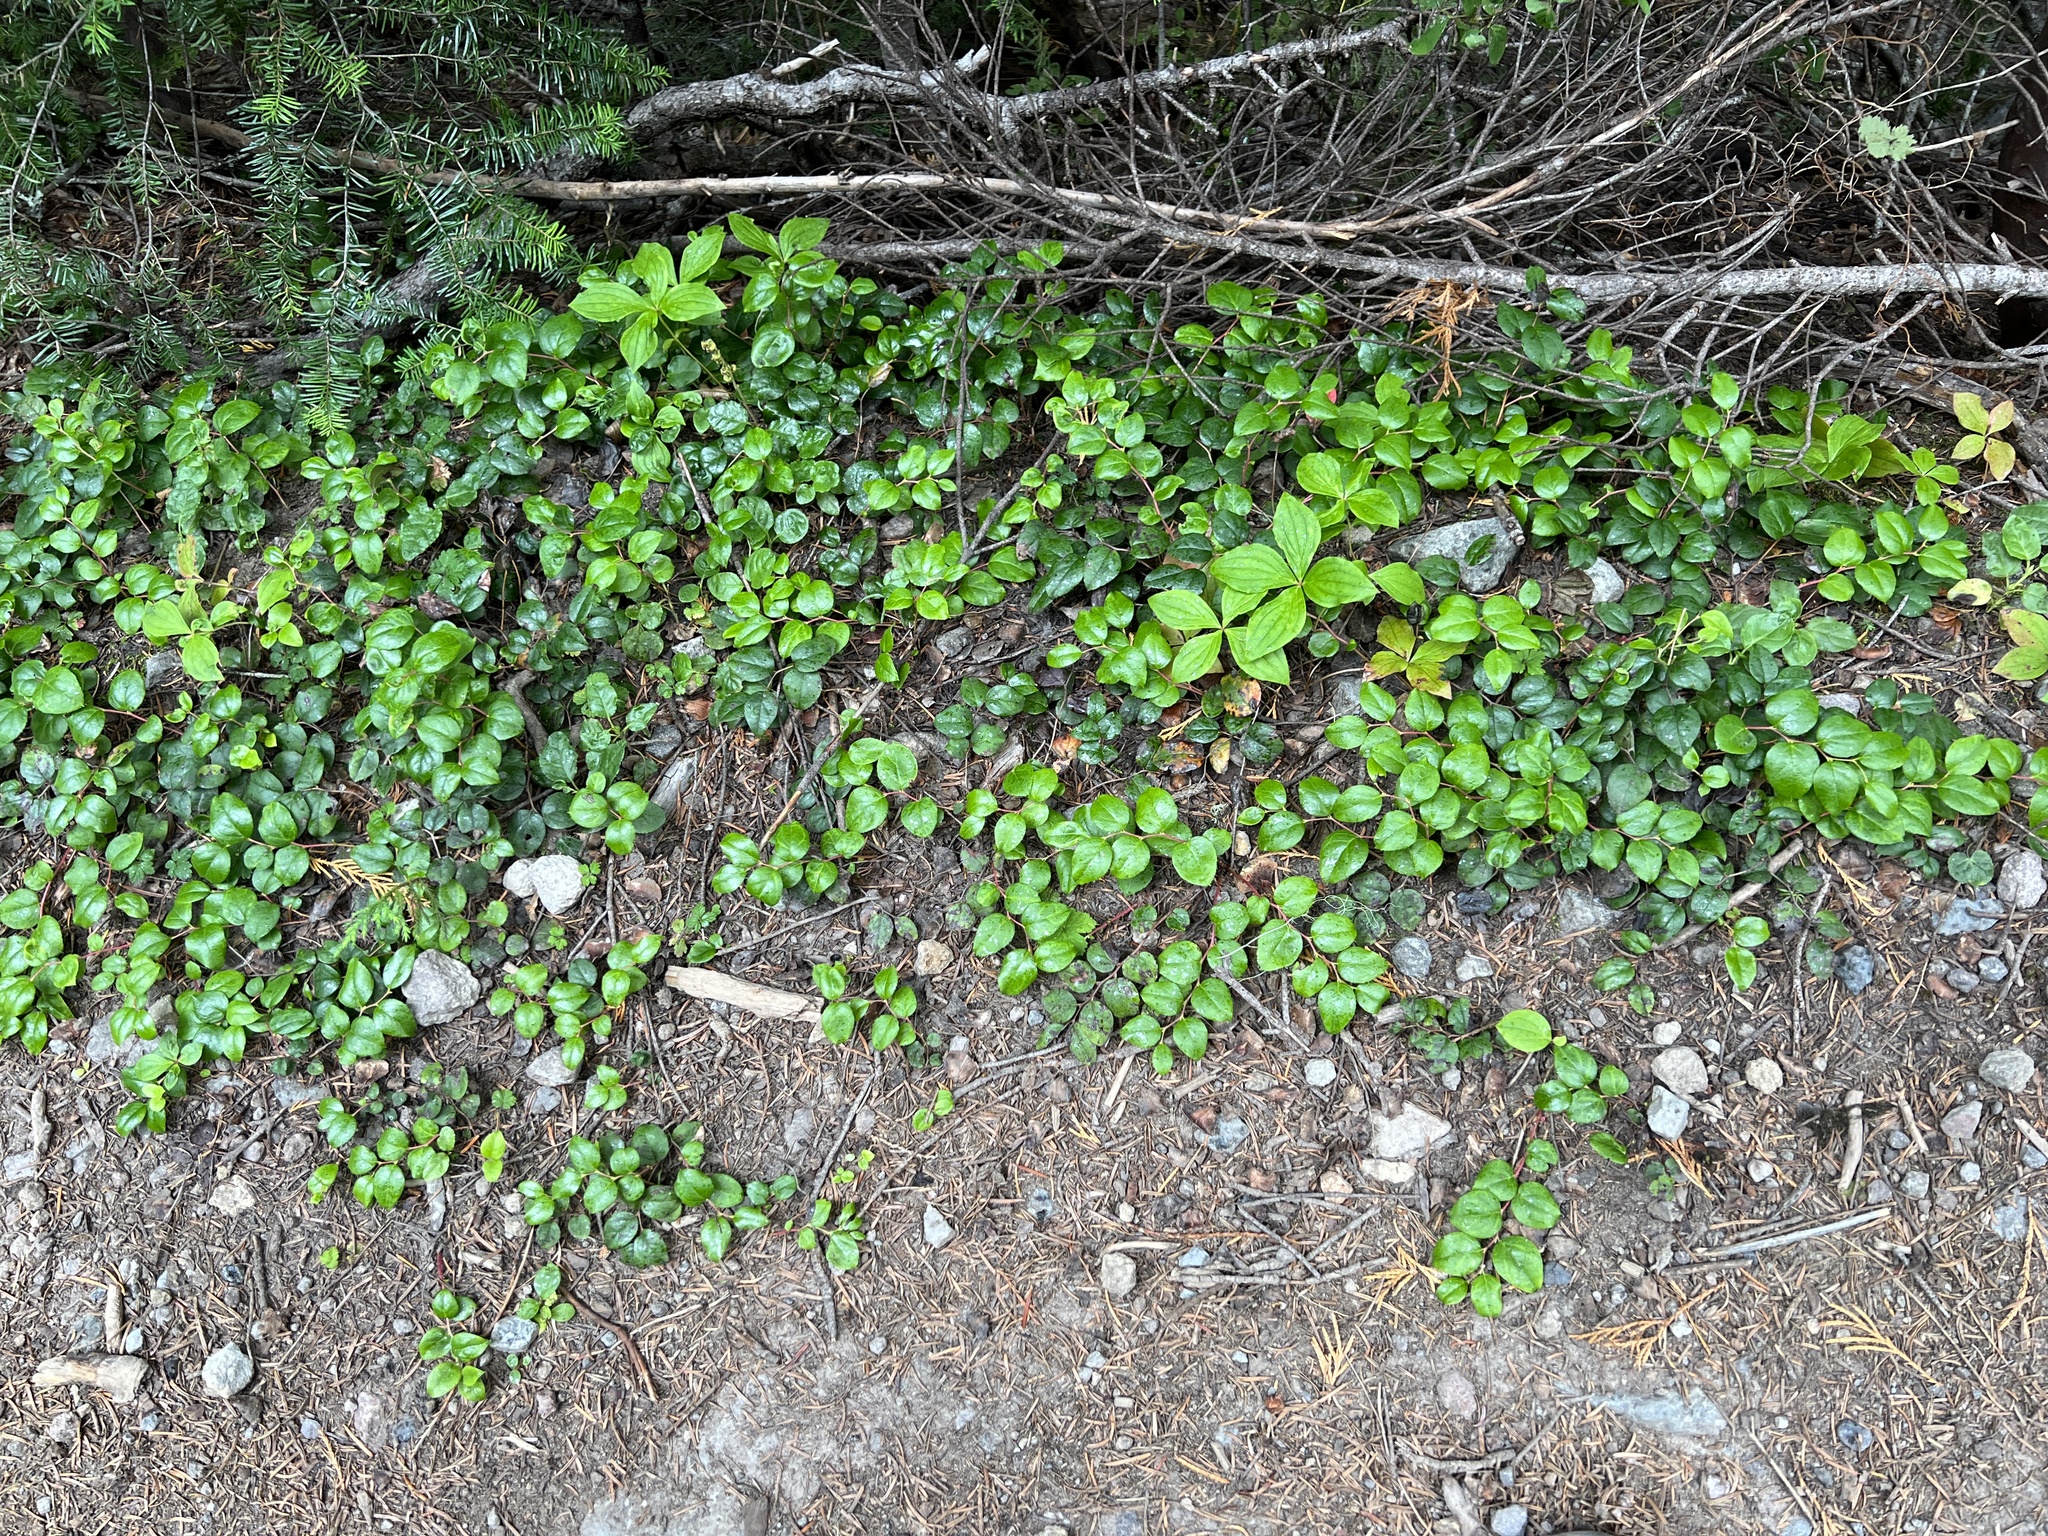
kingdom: Plantae
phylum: Tracheophyta
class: Magnoliopsida
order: Ericales
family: Ericaceae
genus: Gaultheria
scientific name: Gaultheria ovatifolia
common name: Oregon wintergreen
